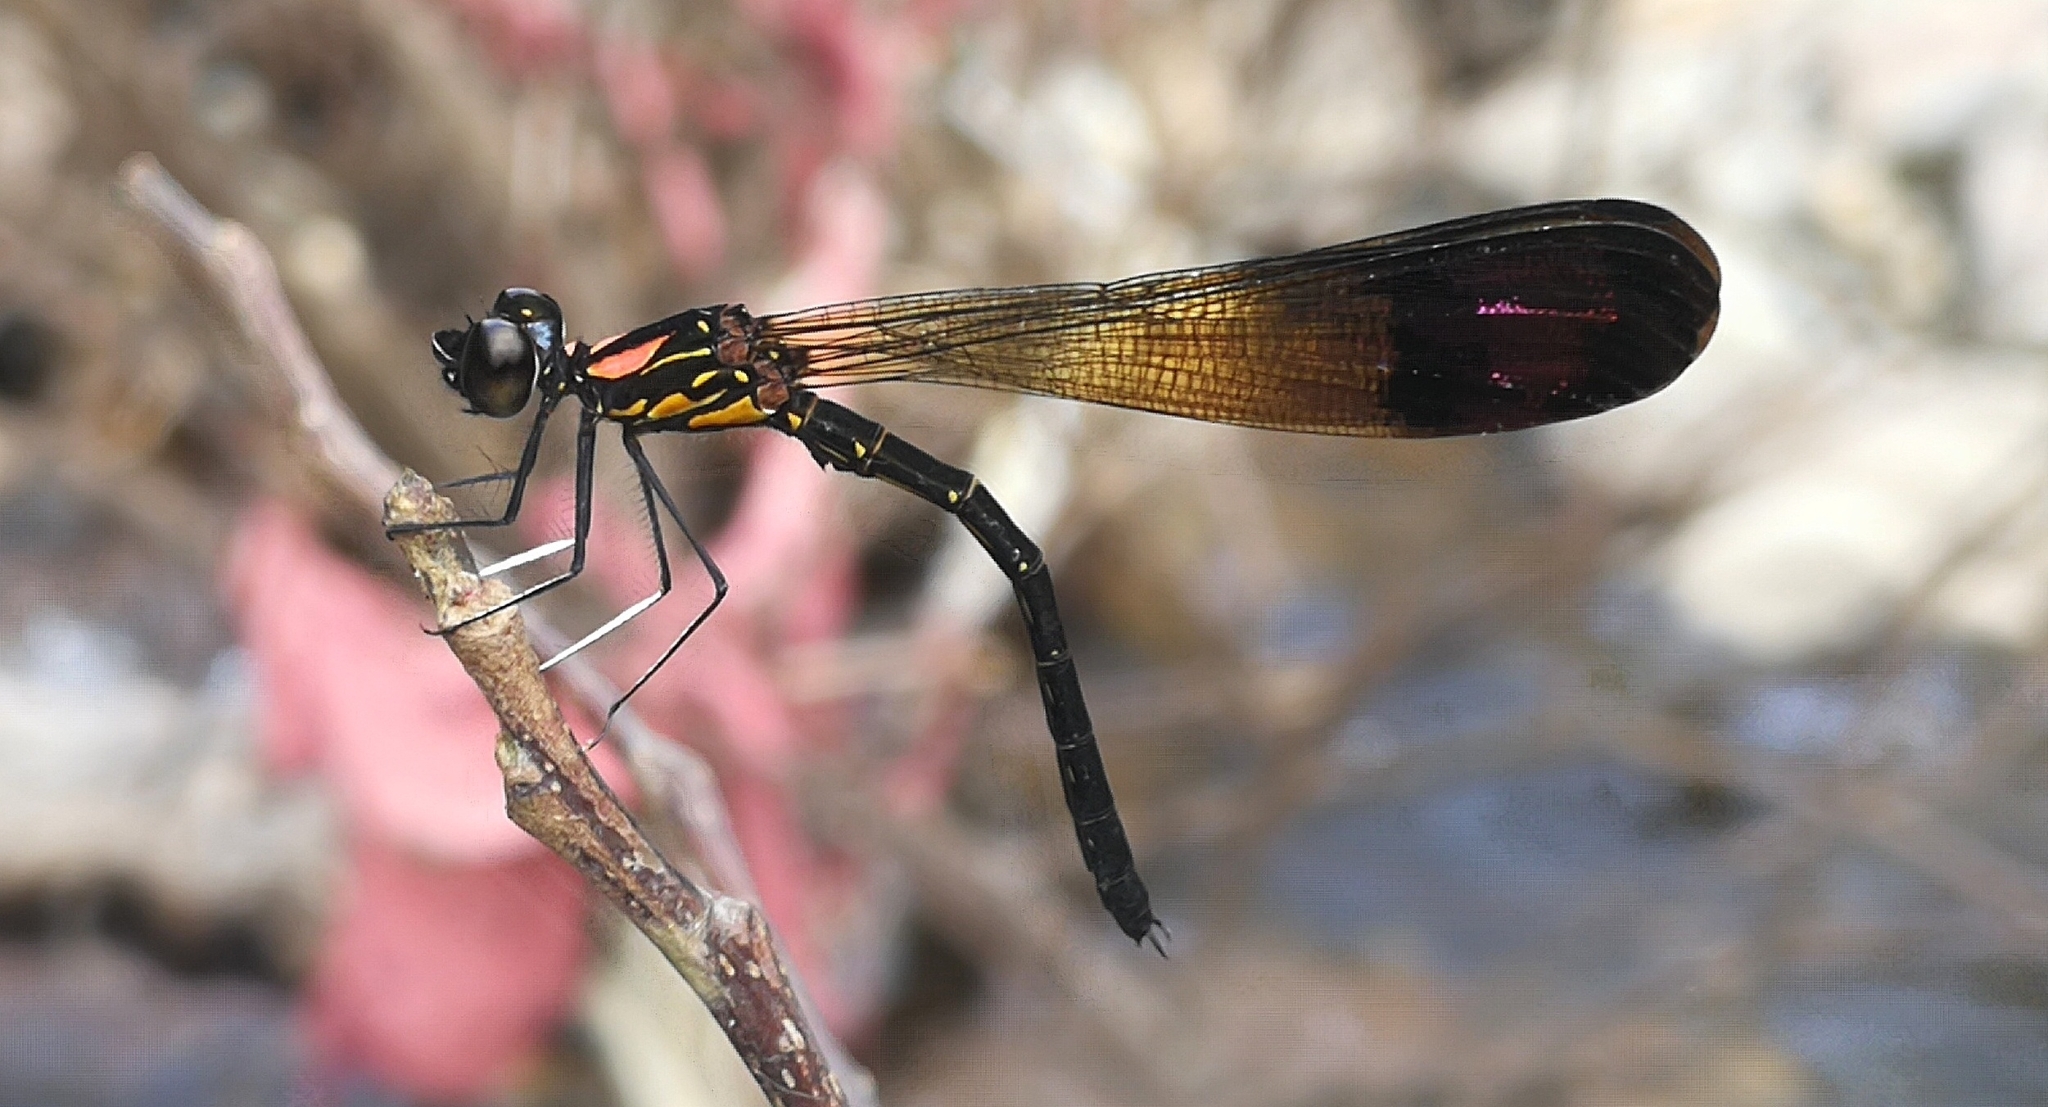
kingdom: Animalia
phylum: Arthropoda
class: Insecta
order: Odonata
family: Chlorocyphidae
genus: Heliocypha
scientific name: Heliocypha bisignata
